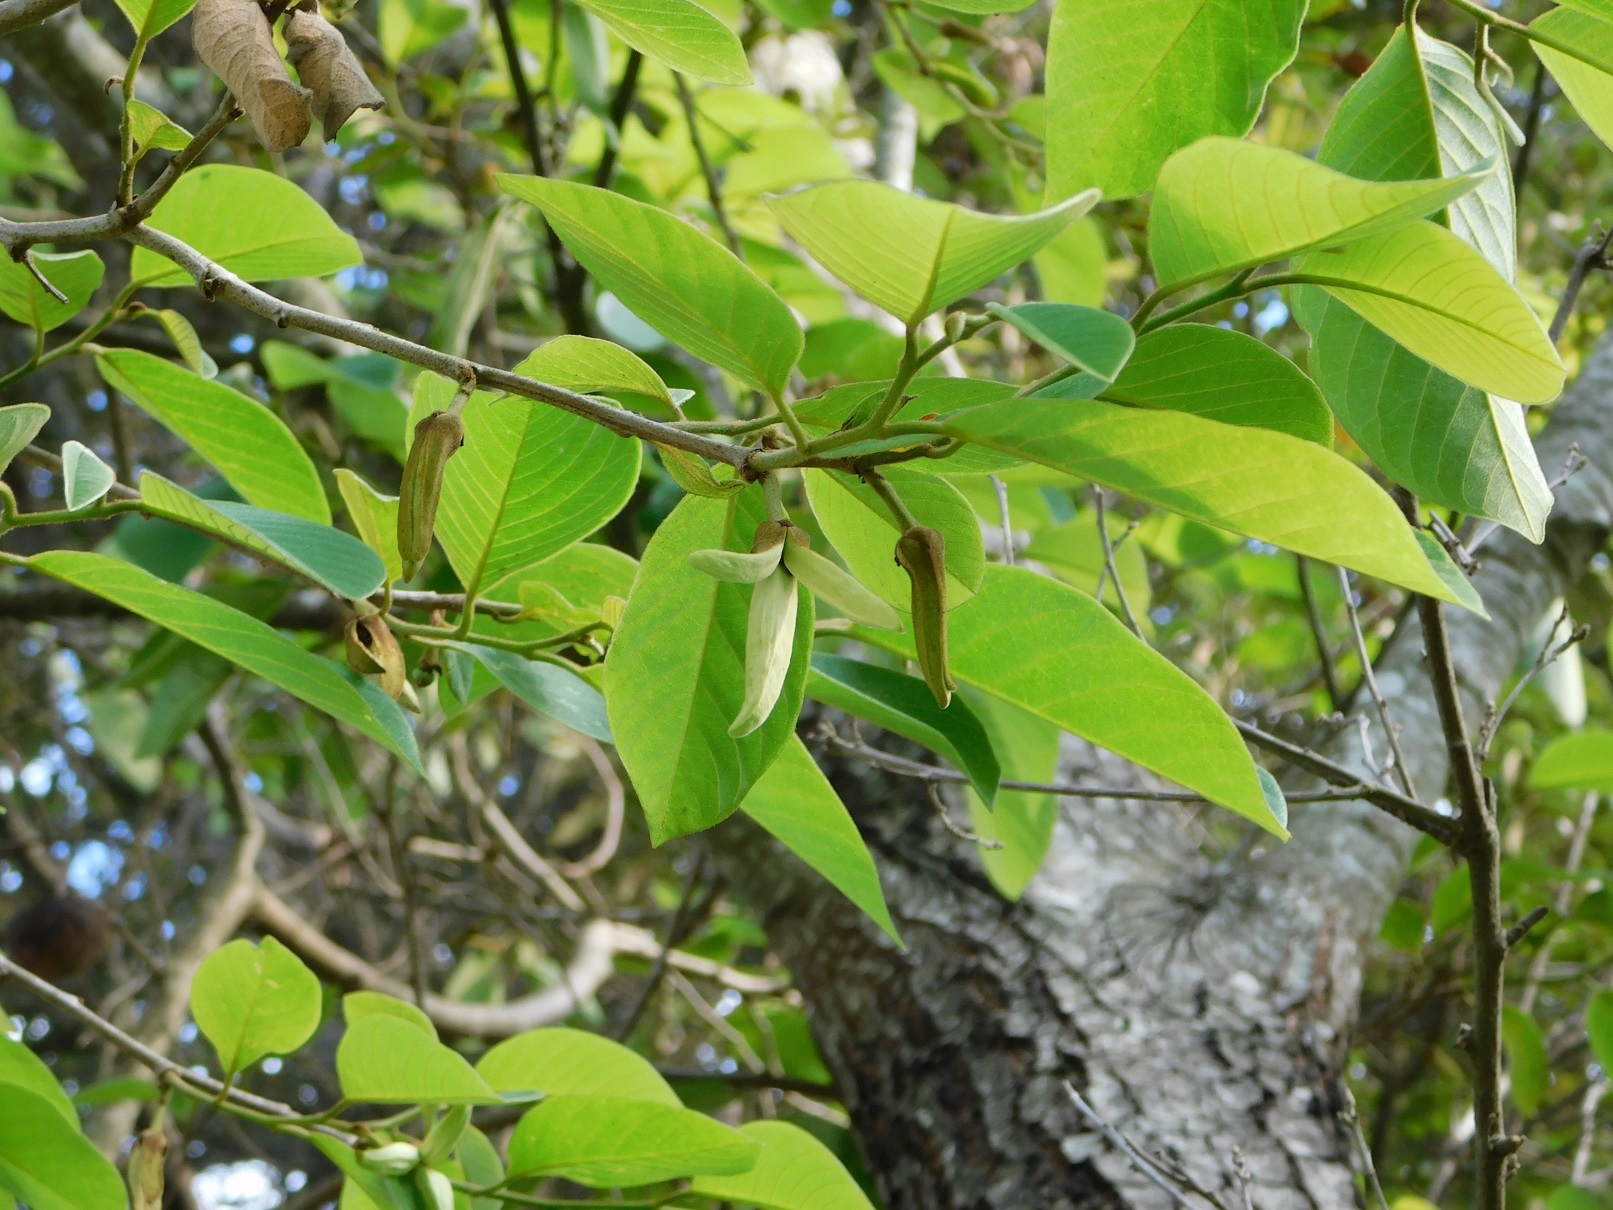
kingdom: Plantae
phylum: Tracheophyta
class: Magnoliopsida
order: Magnoliales
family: Annonaceae
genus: Annona
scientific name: Annona cherimola
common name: Cherimoya
